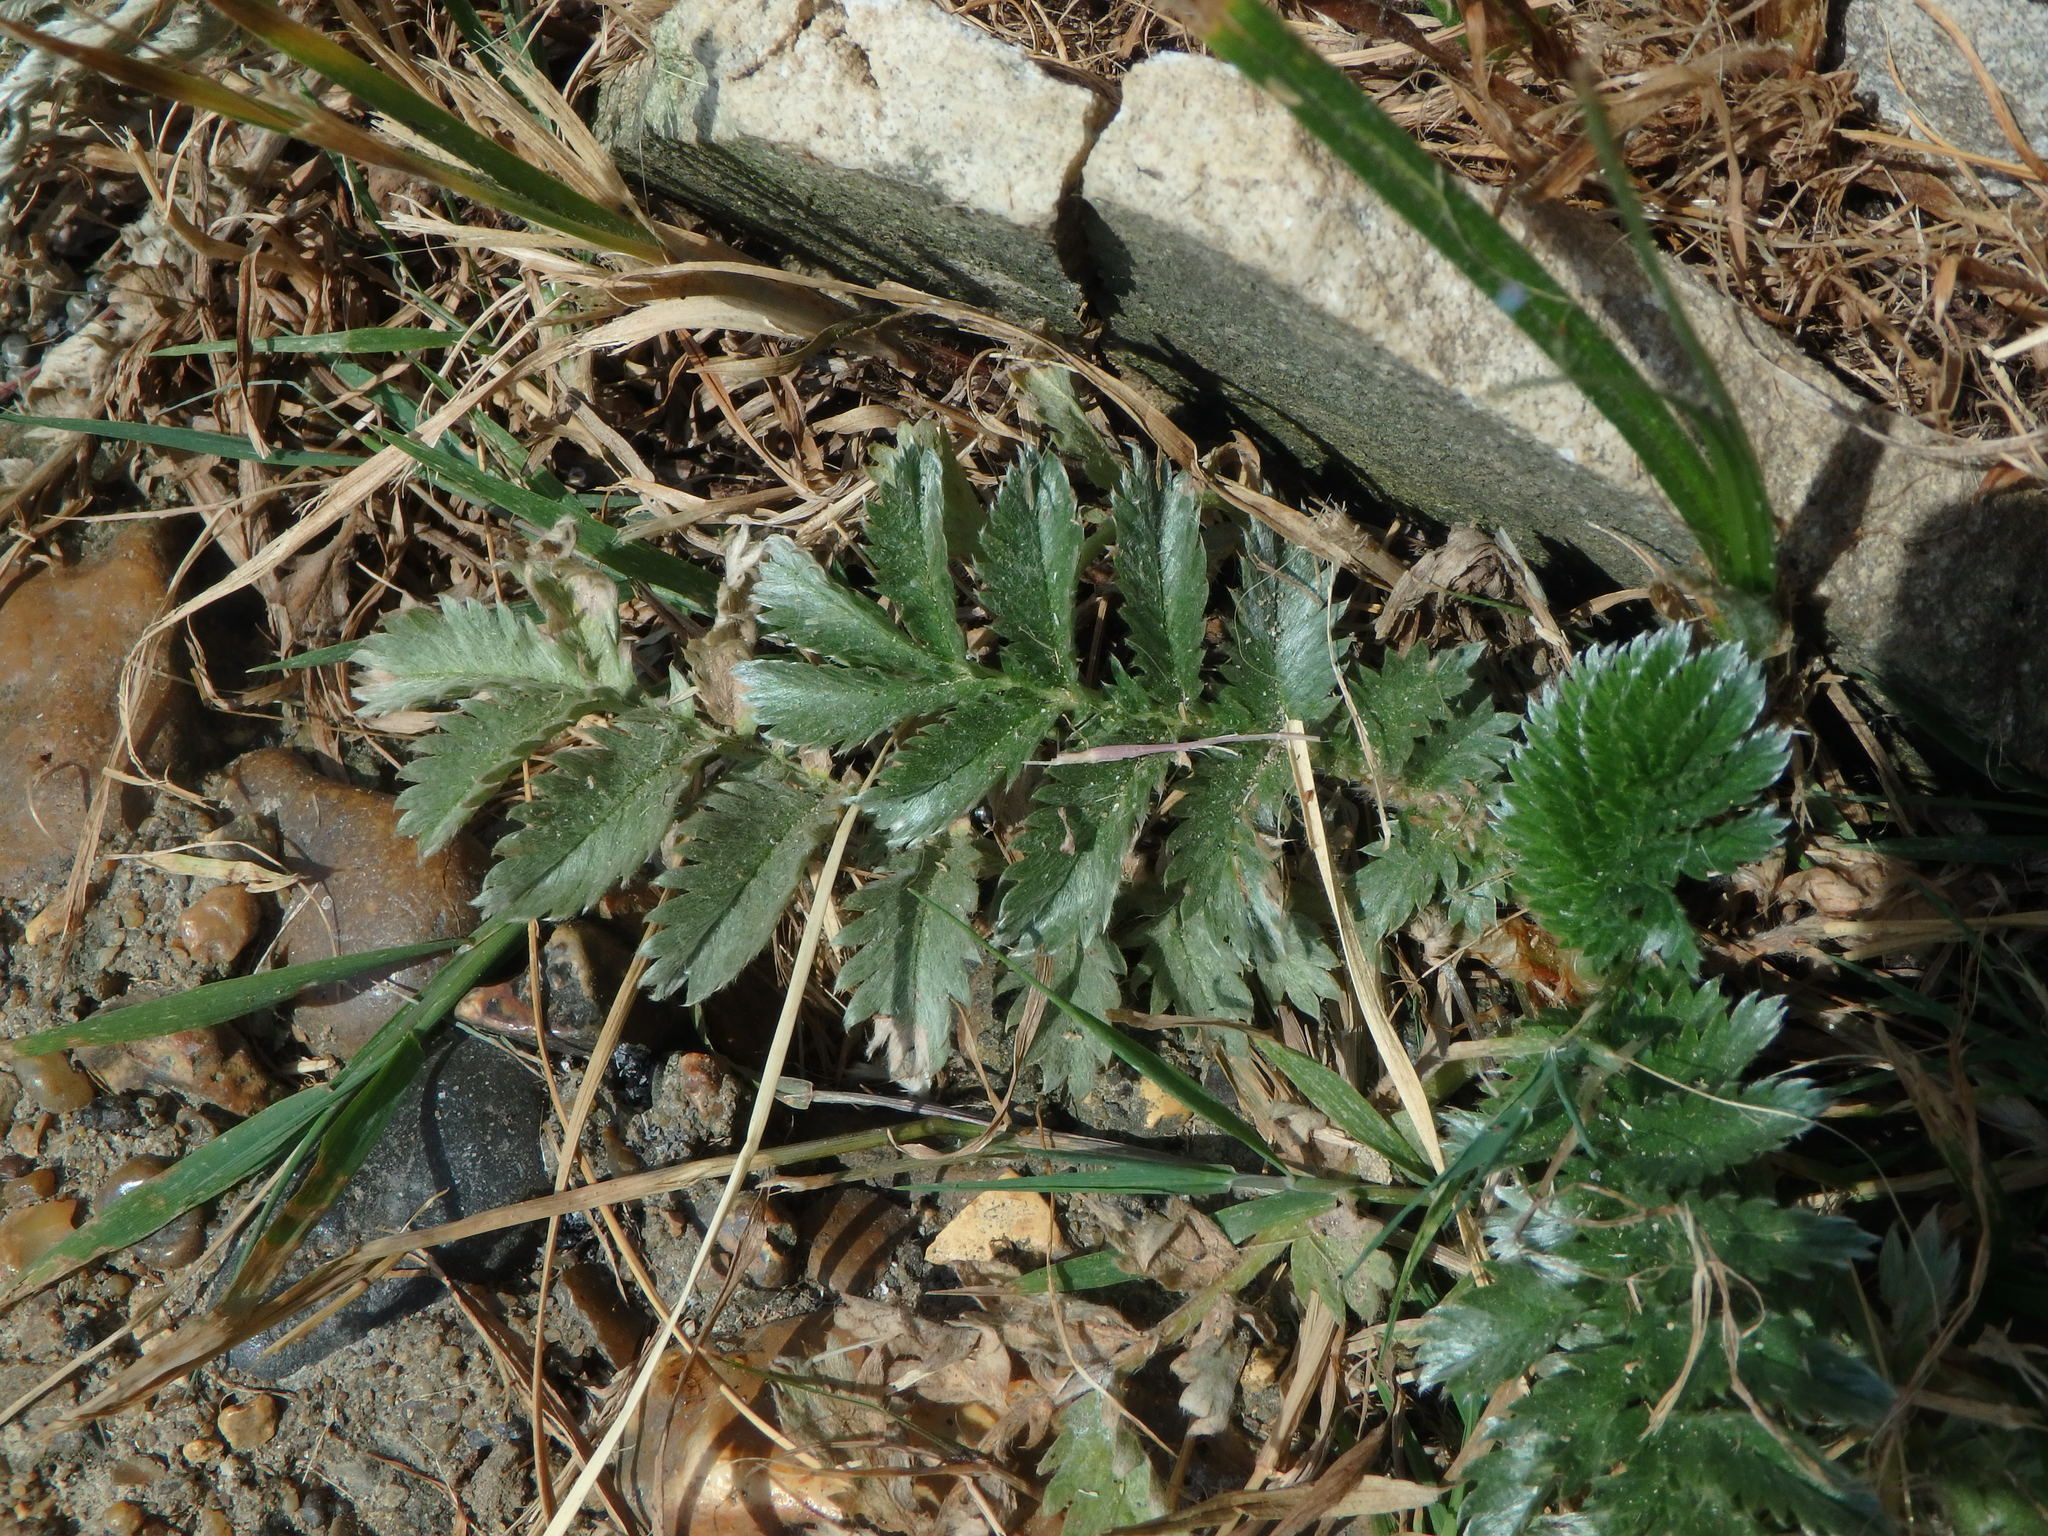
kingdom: Plantae
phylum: Tracheophyta
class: Magnoliopsida
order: Rosales
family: Rosaceae
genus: Argentina
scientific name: Argentina anserina
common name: Common silverweed
